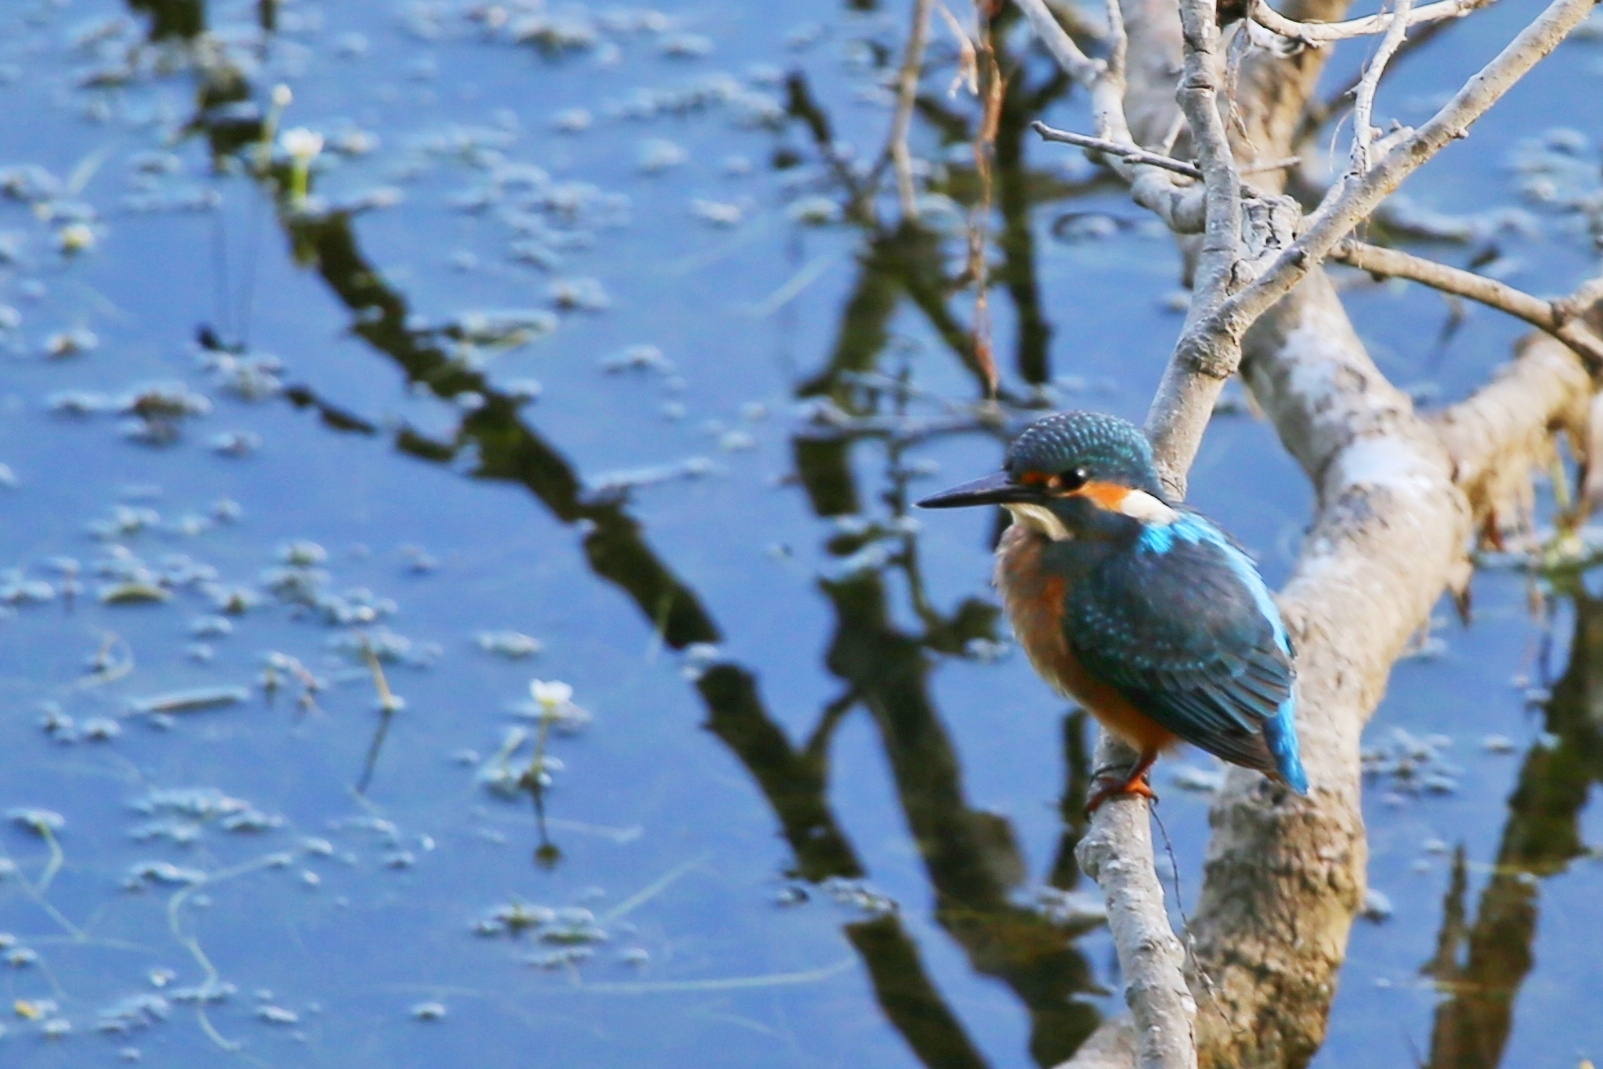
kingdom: Animalia
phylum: Chordata
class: Aves
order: Coraciiformes
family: Alcedinidae
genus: Alcedo
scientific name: Alcedo atthis
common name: Common kingfisher
